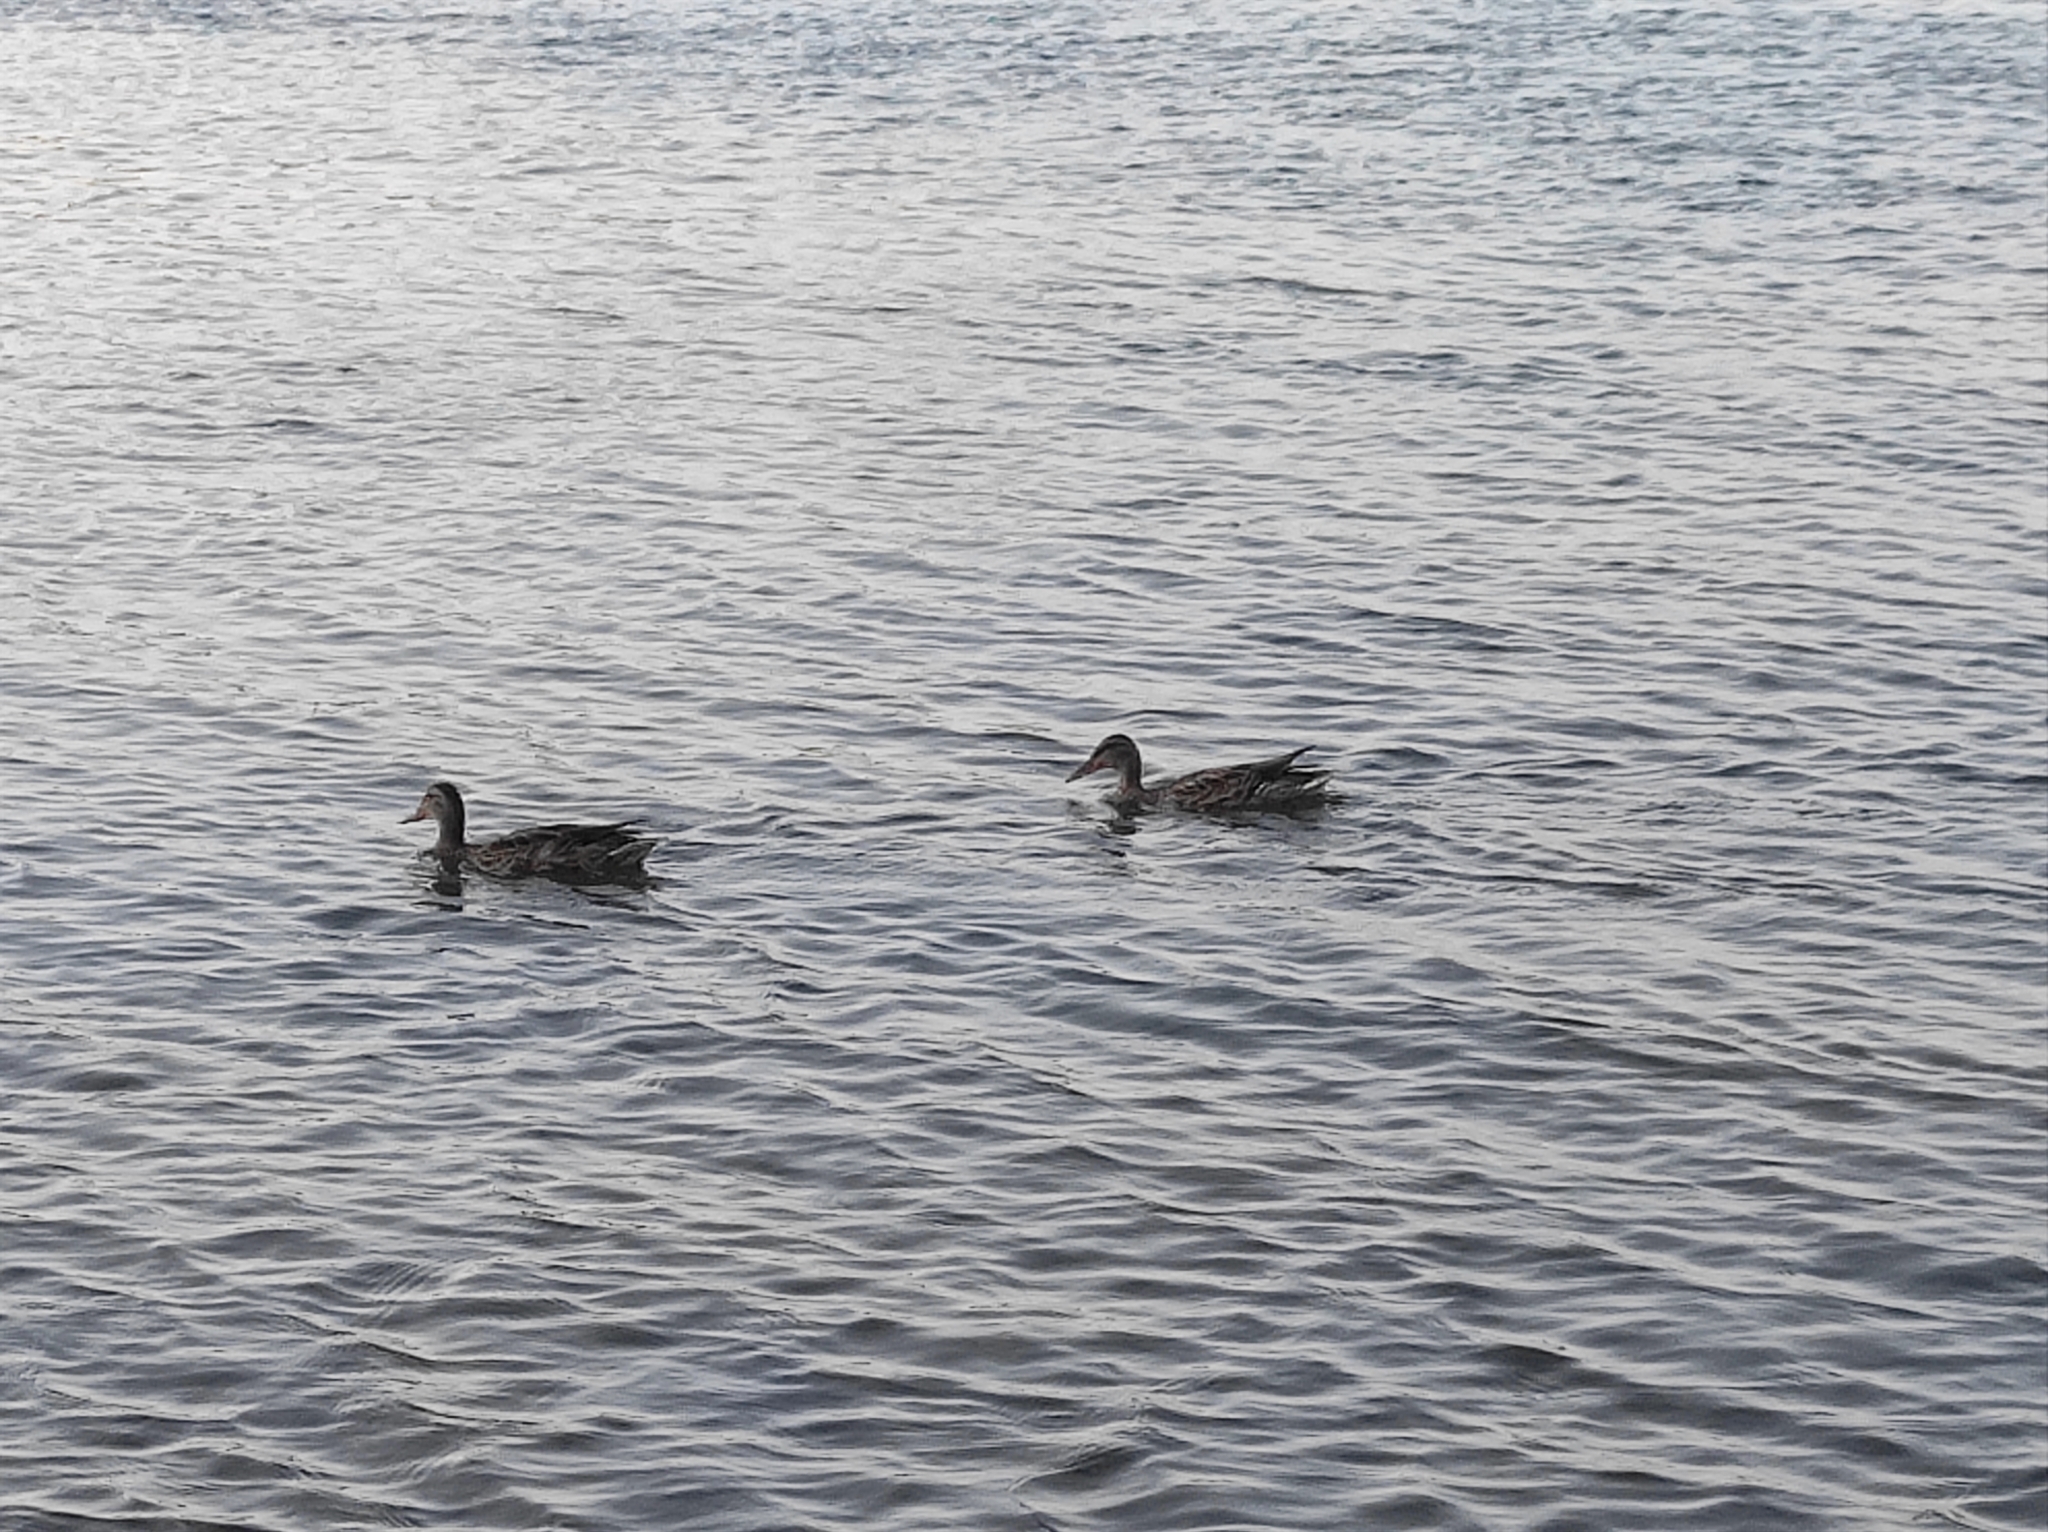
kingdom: Animalia
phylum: Chordata
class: Aves
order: Anseriformes
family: Anatidae
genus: Anas
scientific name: Anas platyrhynchos
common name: Mallard
